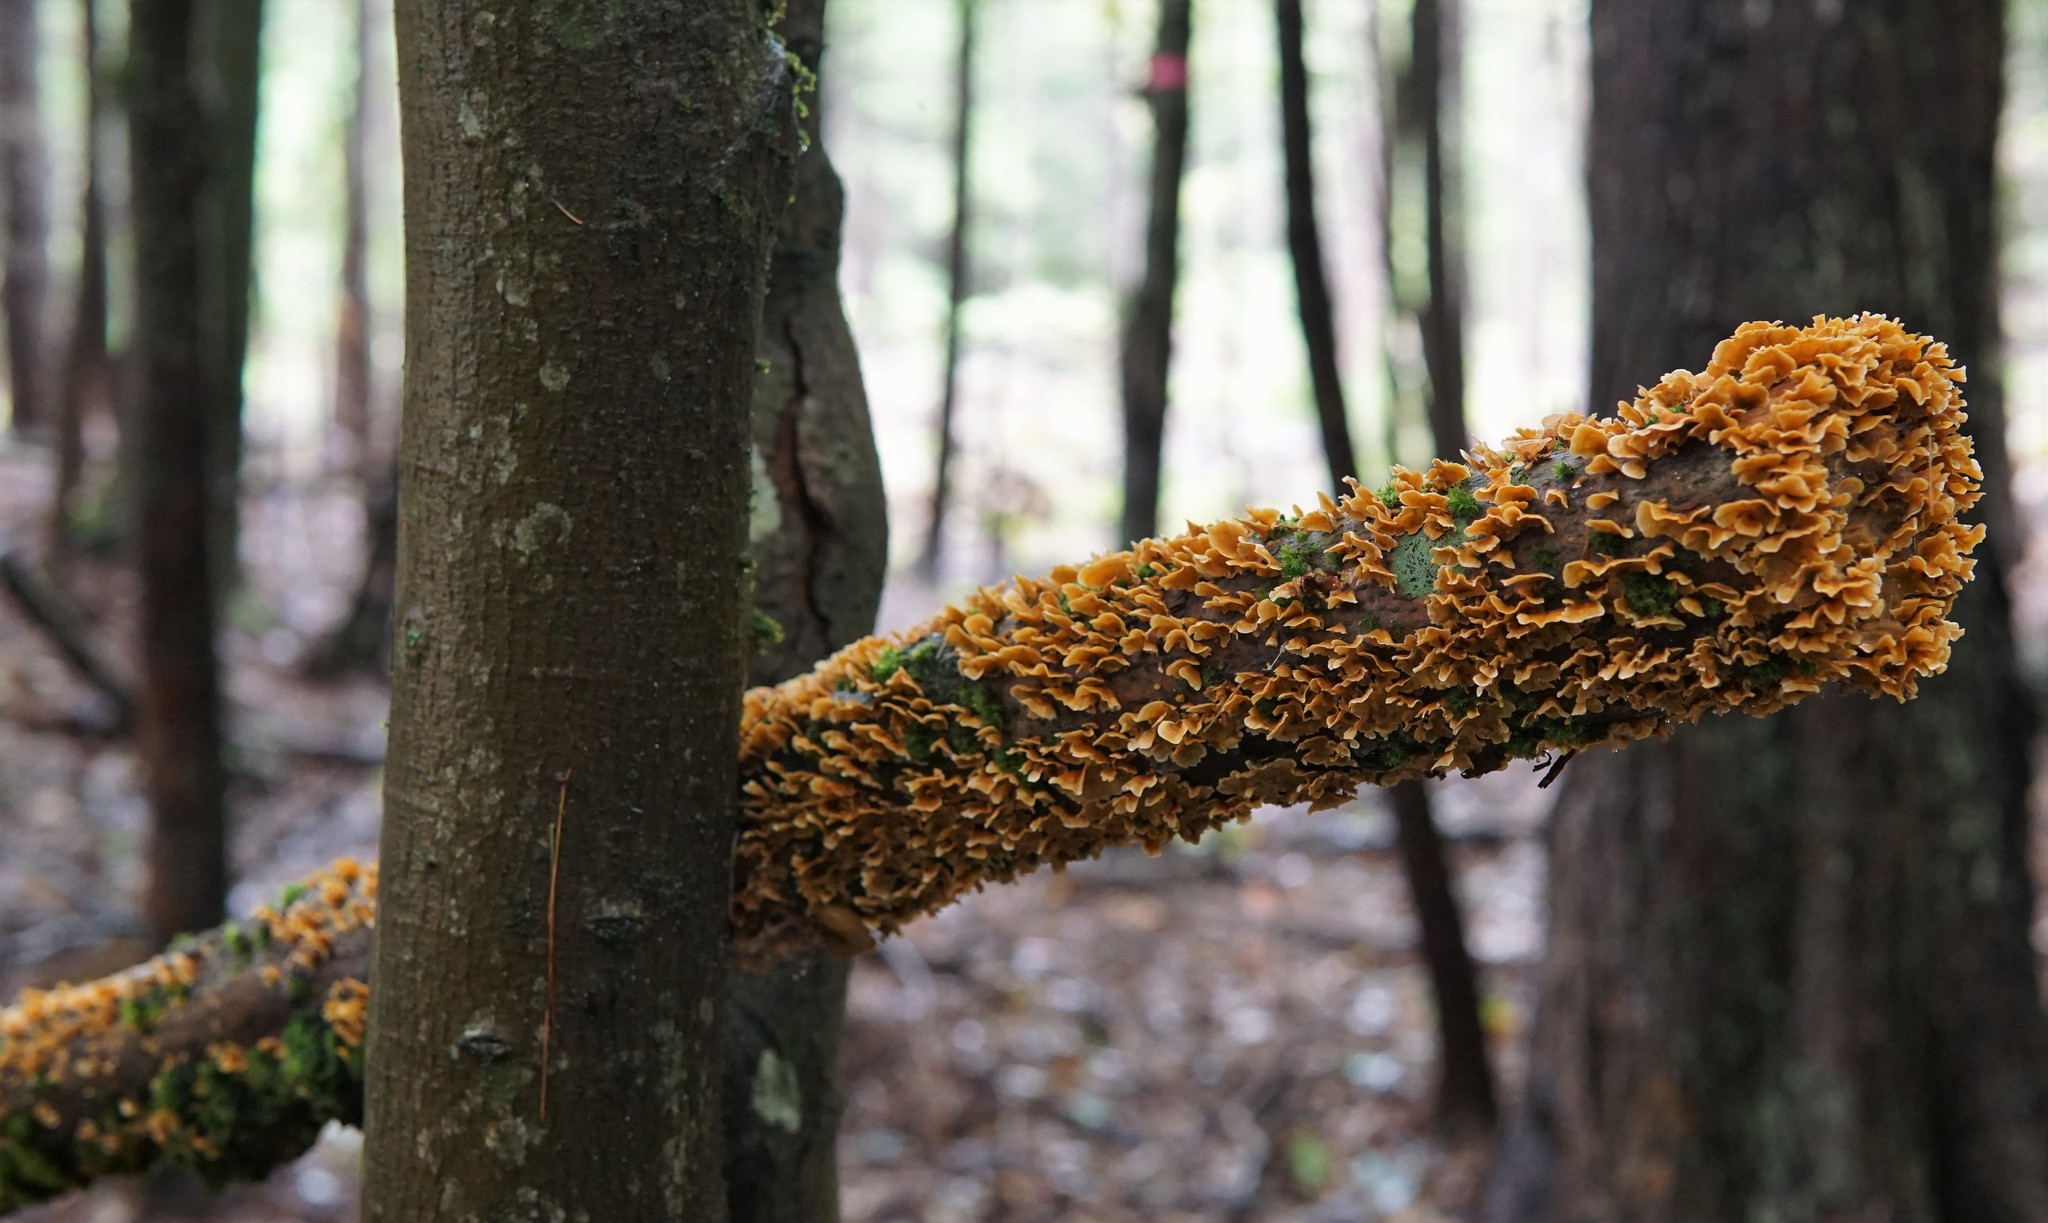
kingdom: Fungi
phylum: Basidiomycota
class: Agaricomycetes
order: Russulales
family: Stereaceae
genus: Stereum
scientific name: Stereum complicatum
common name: Crowded parchment
